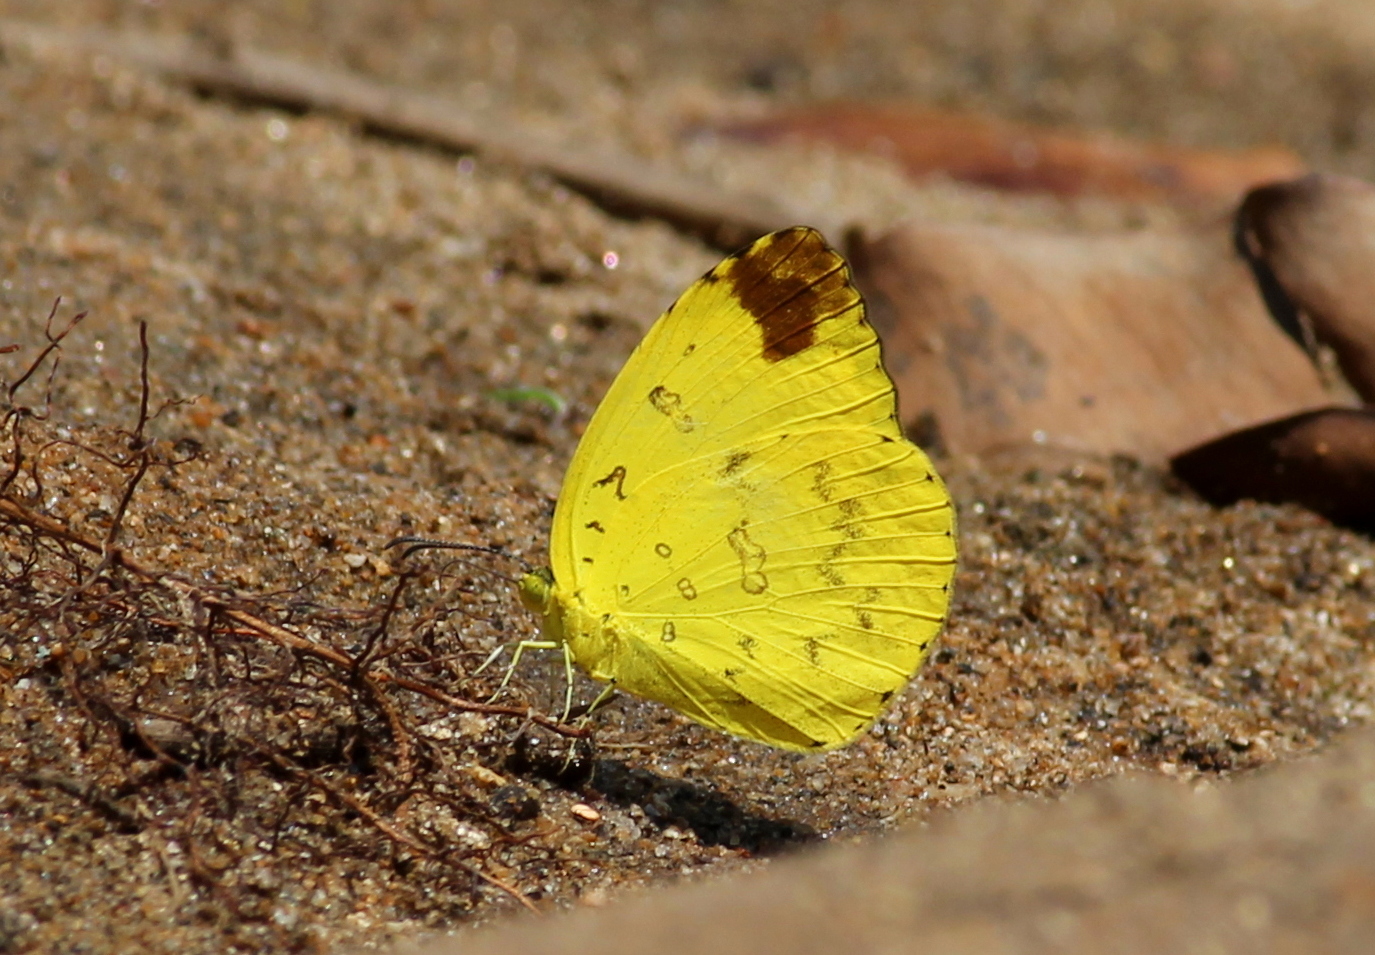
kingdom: Animalia
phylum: Arthropoda
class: Insecta
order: Lepidoptera
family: Pieridae
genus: Eurema
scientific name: Eurema blanda
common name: Three-spot grass yellow
